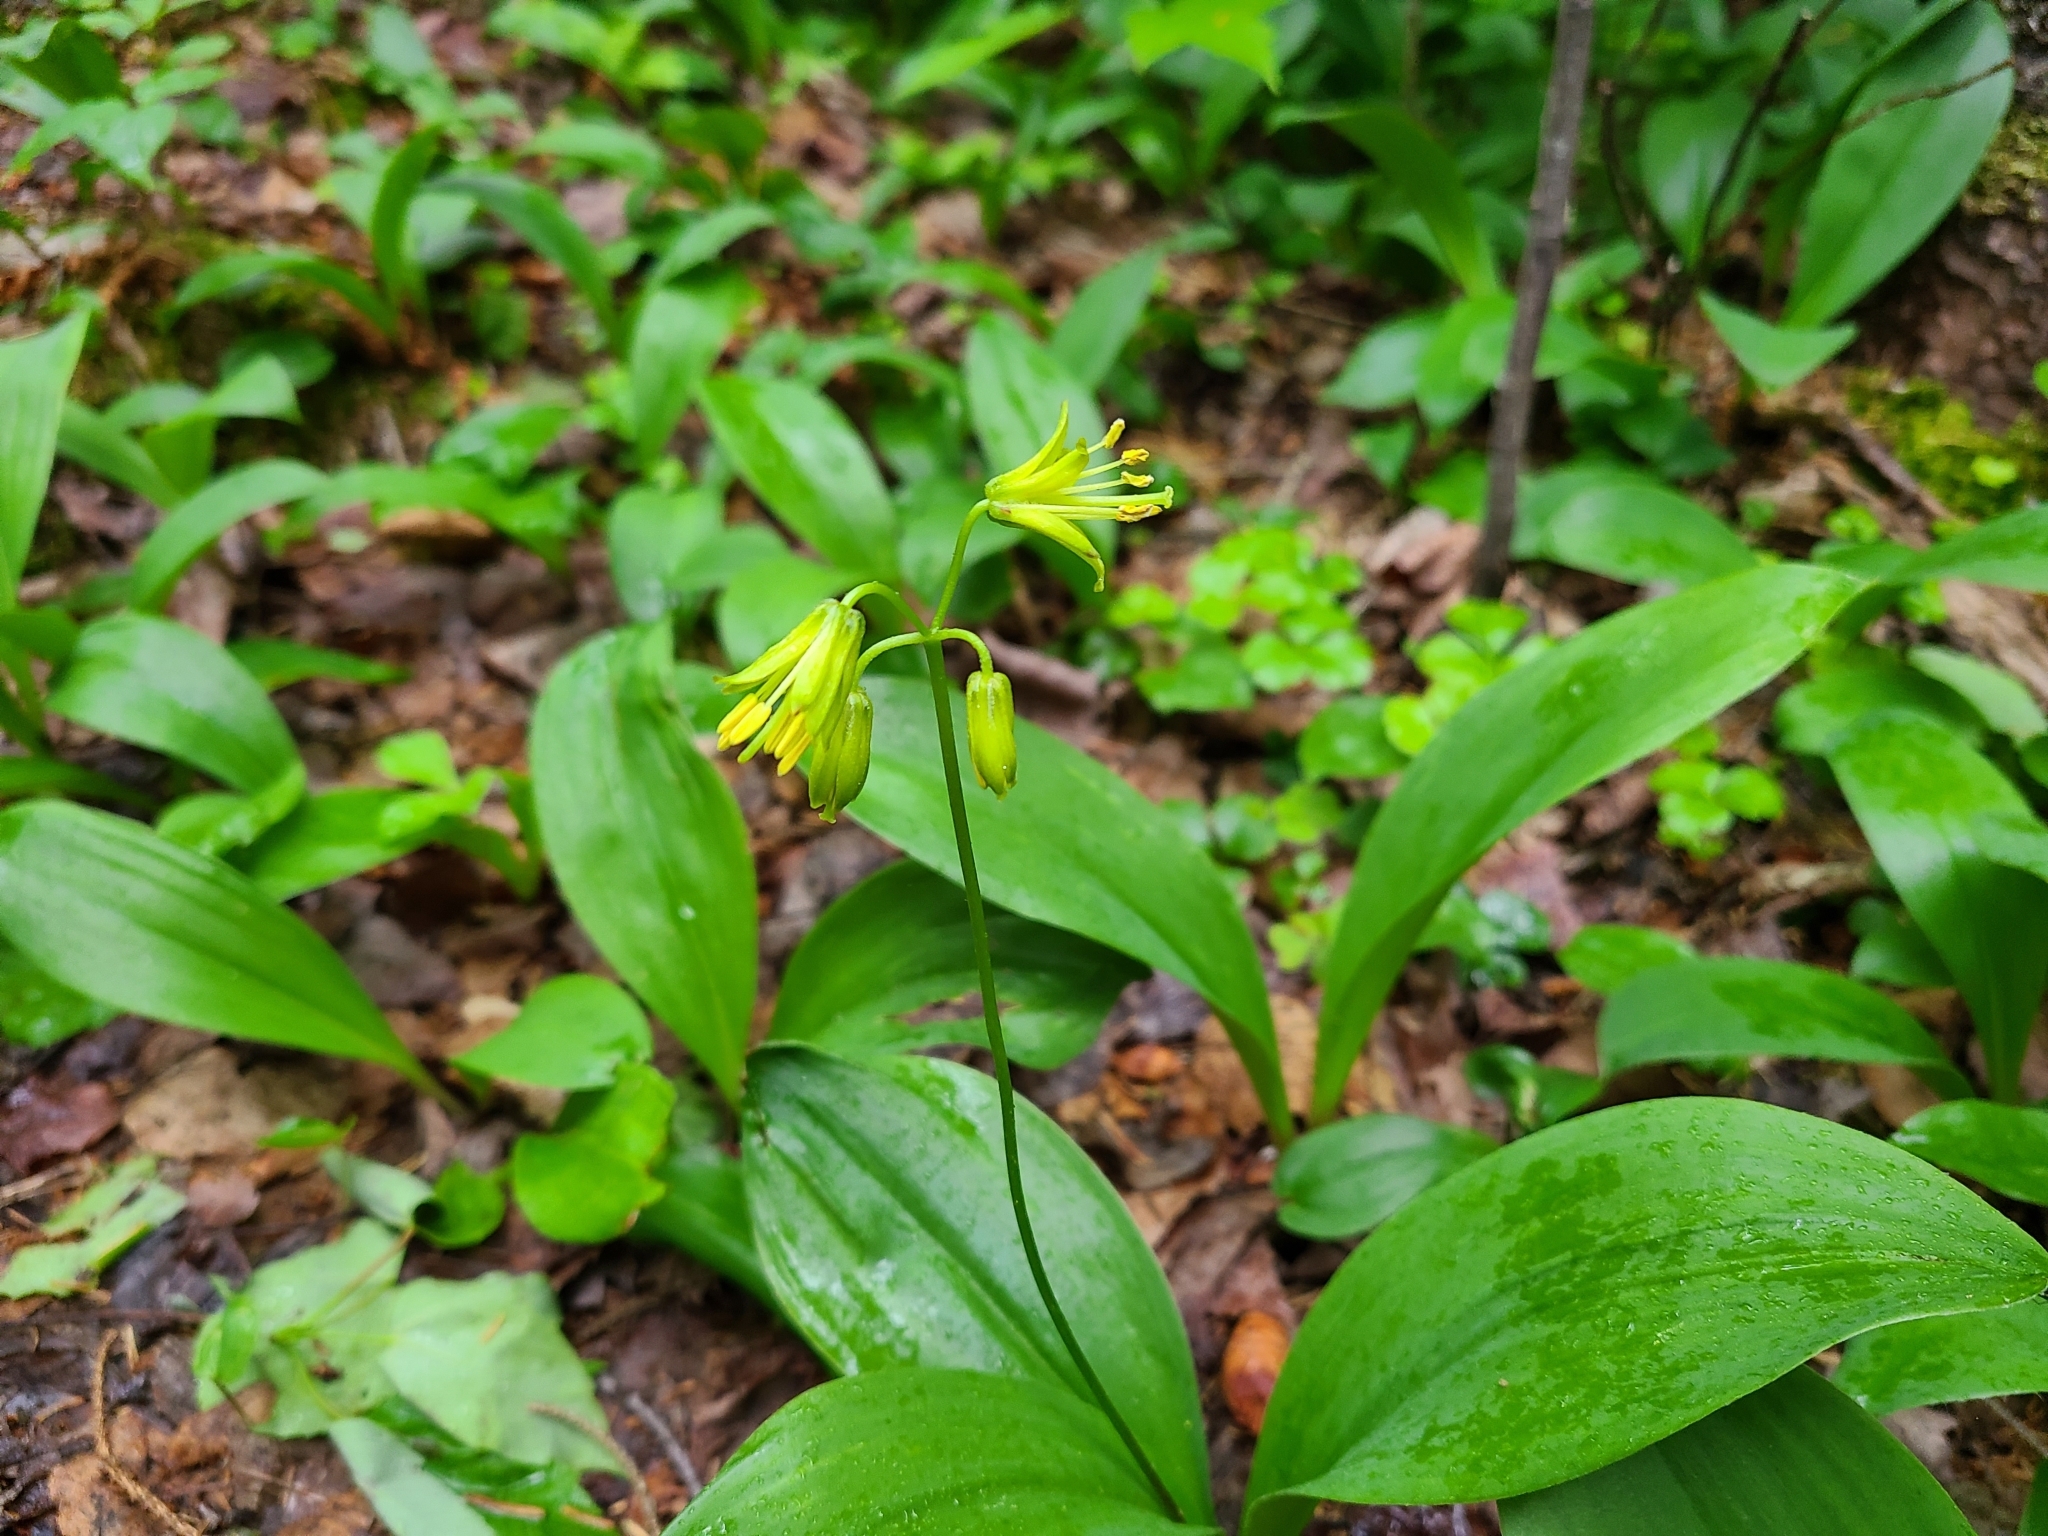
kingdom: Plantae
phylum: Tracheophyta
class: Liliopsida
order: Liliales
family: Liliaceae
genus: Clintonia
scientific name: Clintonia borealis
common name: Yellow clintonia
